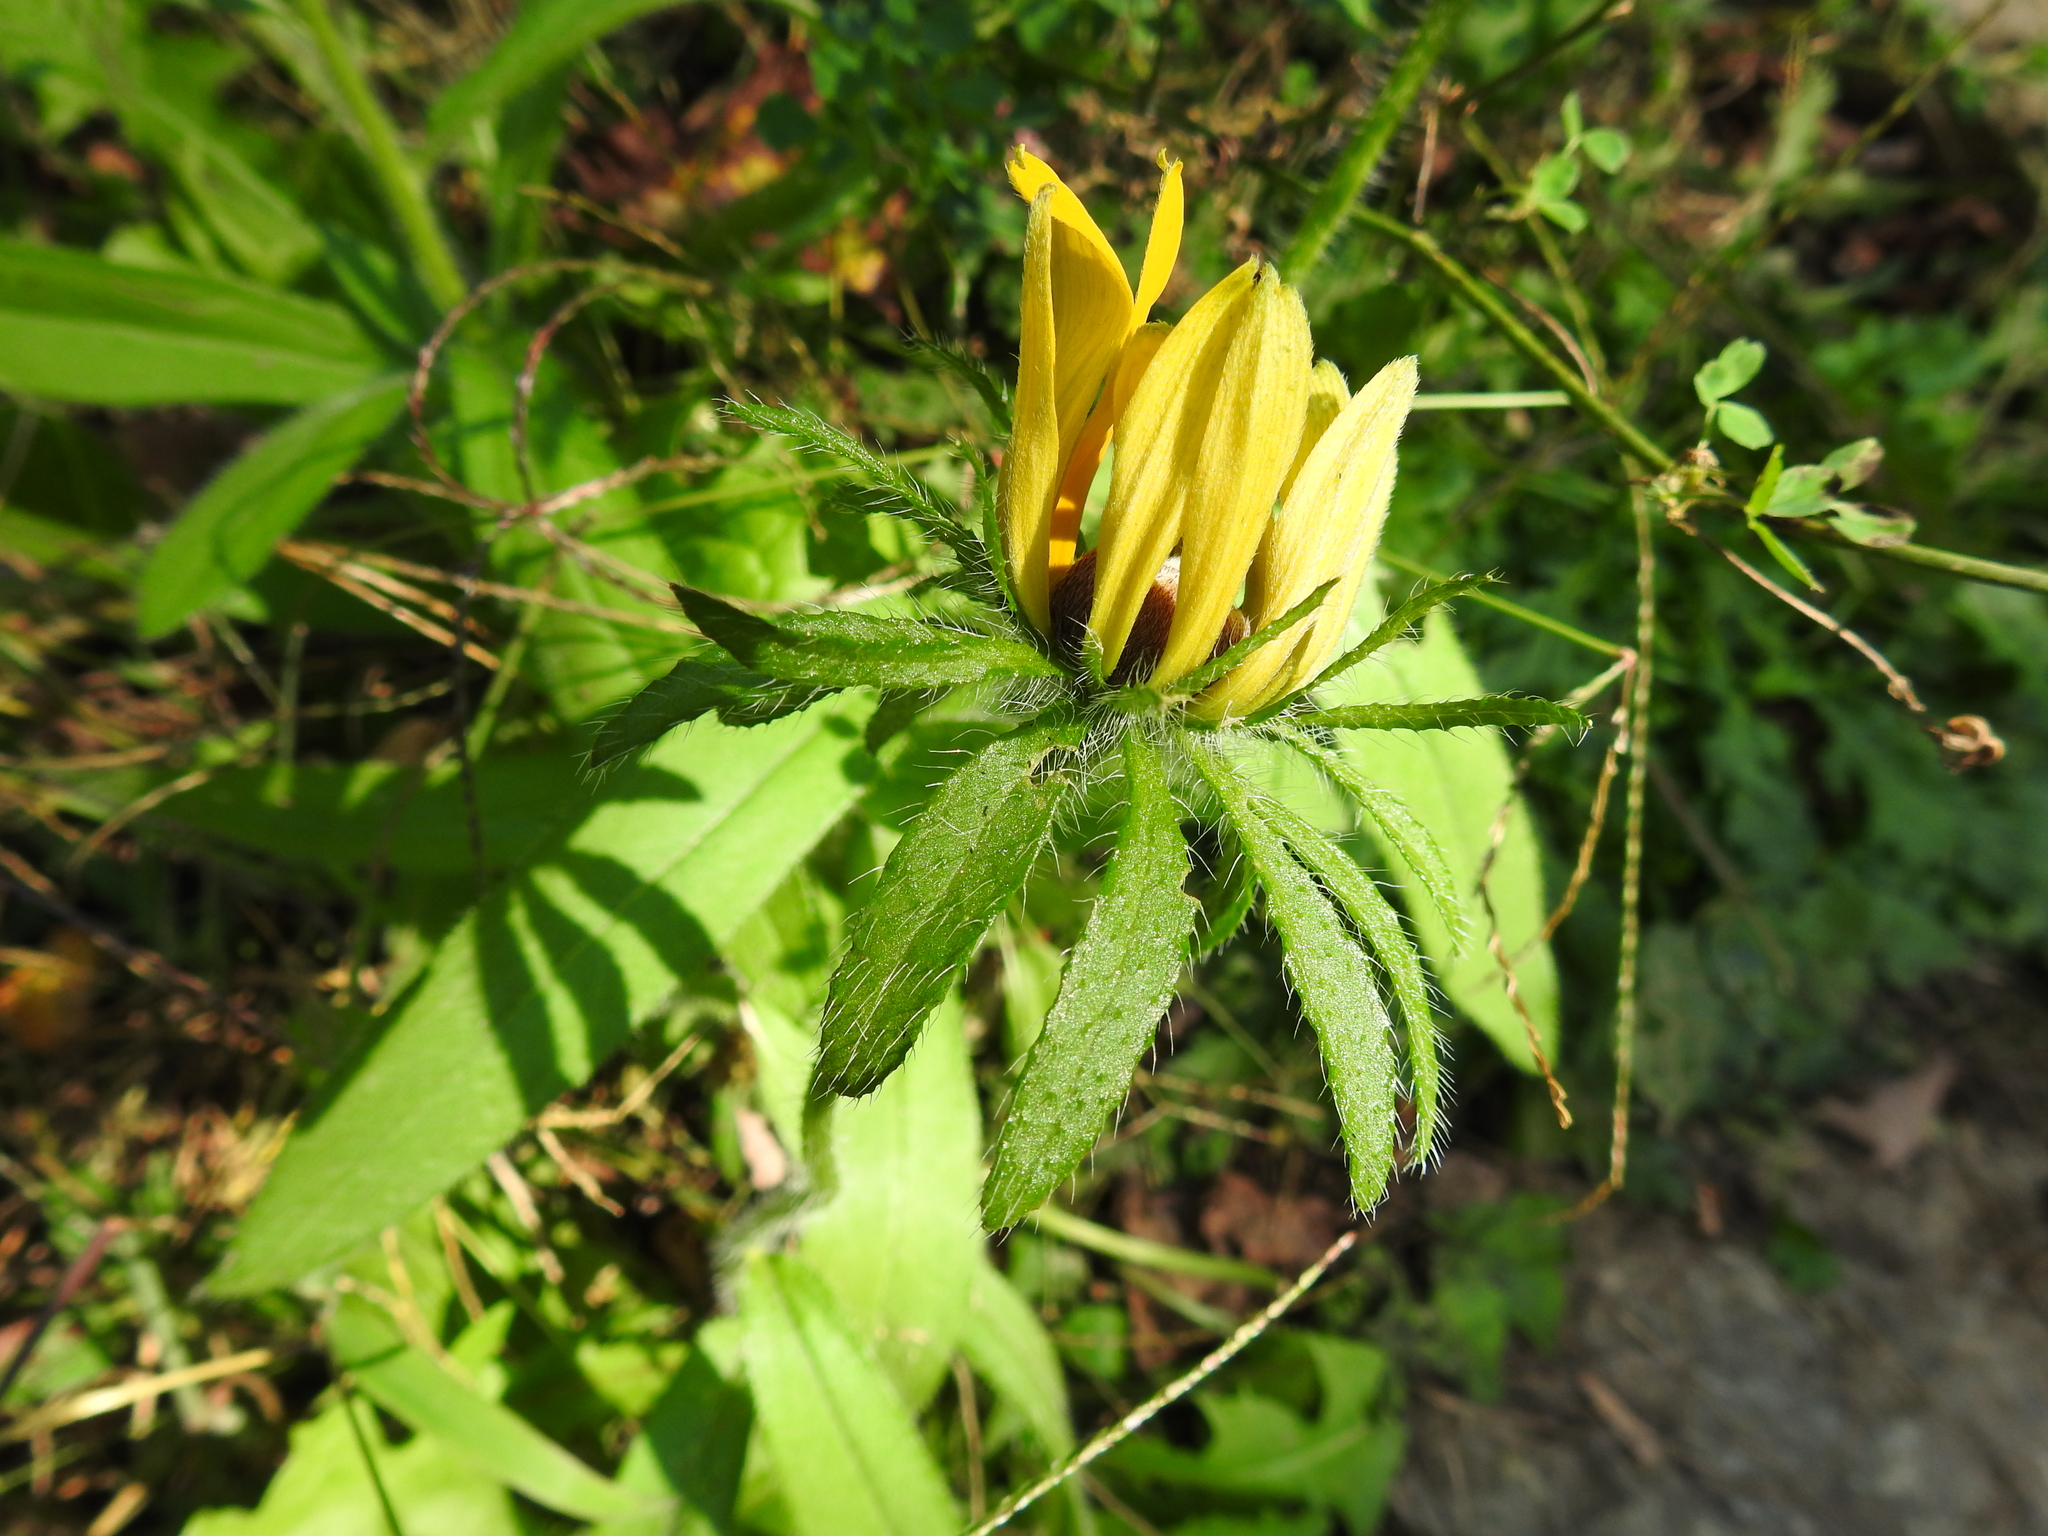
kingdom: Plantae
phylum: Tracheophyta
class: Magnoliopsida
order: Asterales
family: Asteraceae
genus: Rudbeckia
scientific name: Rudbeckia hirta
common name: Black-eyed-susan
